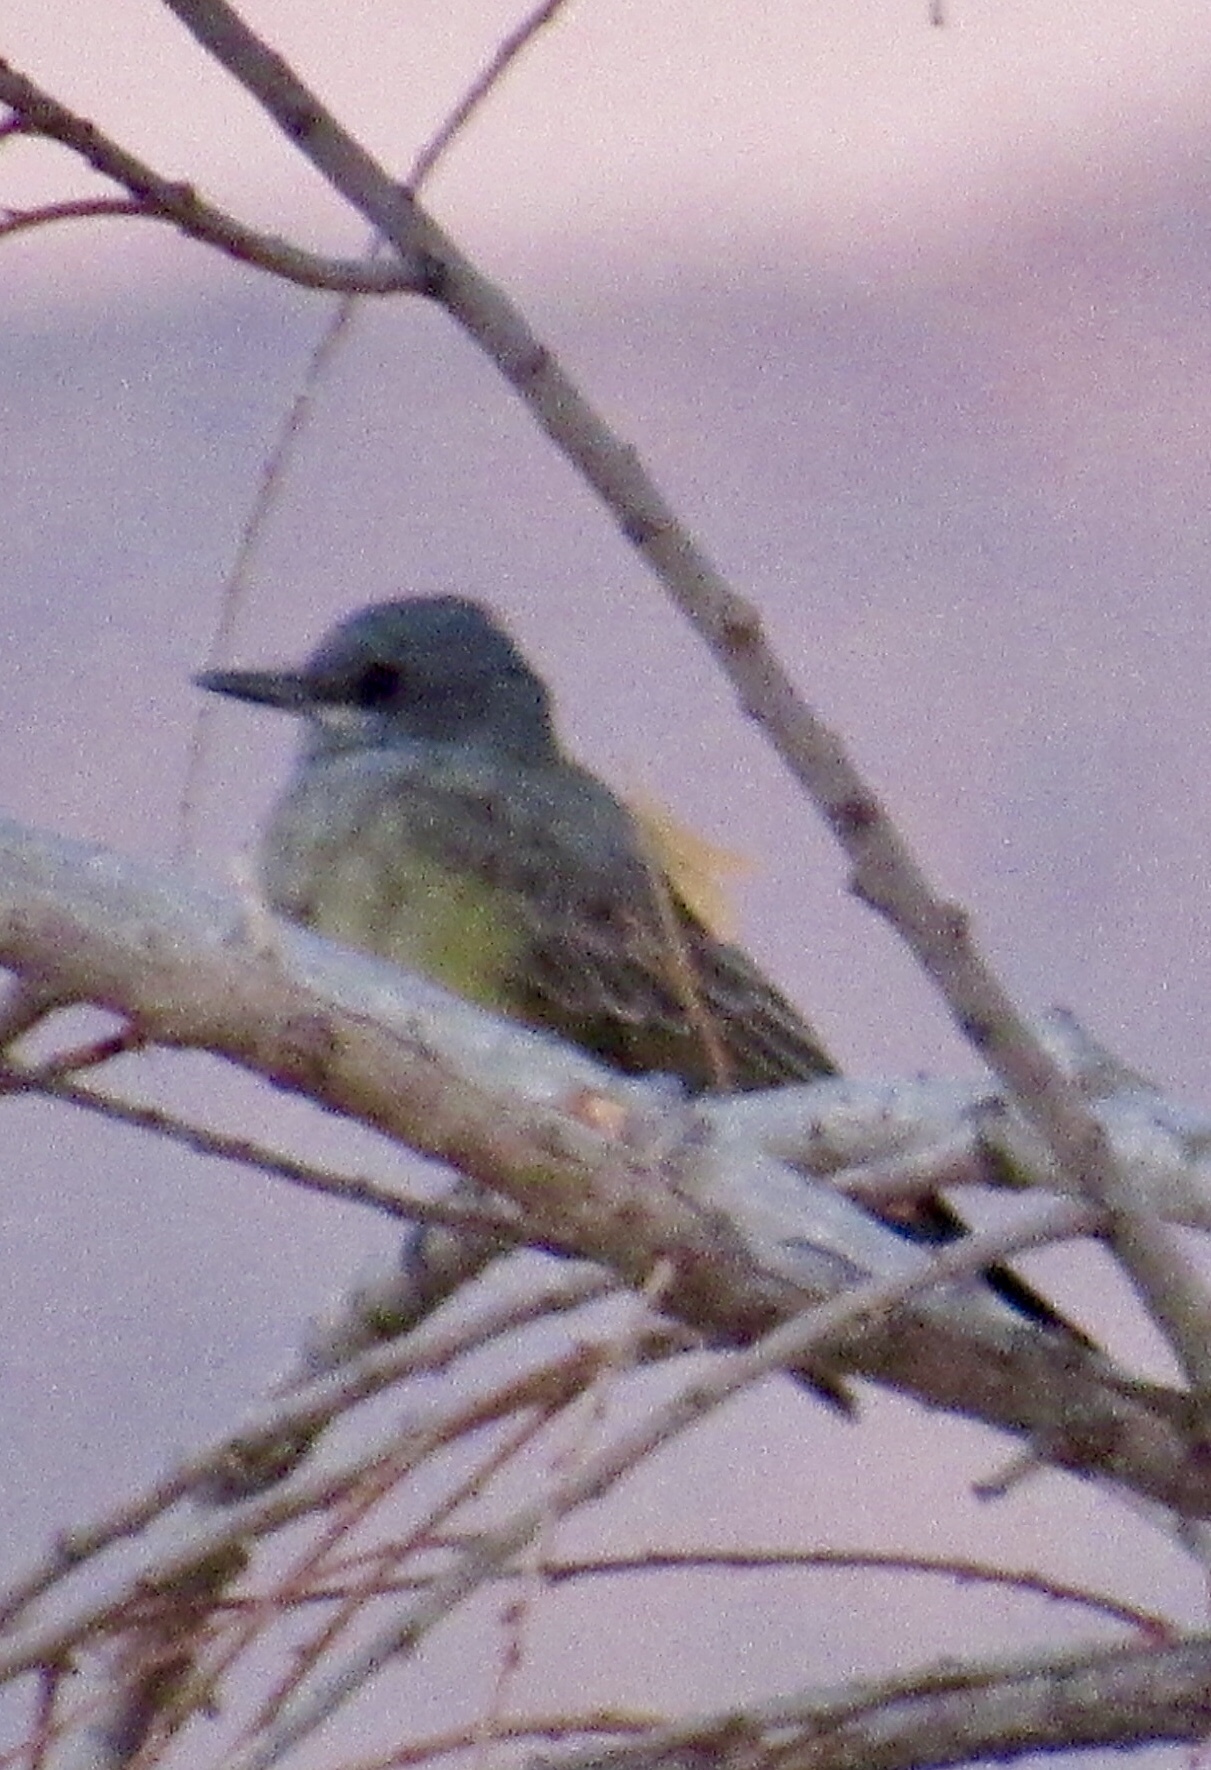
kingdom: Animalia
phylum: Chordata
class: Aves
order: Passeriformes
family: Tyrannidae
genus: Tyrannus
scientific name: Tyrannus vociferans
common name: Cassin's kingbird
